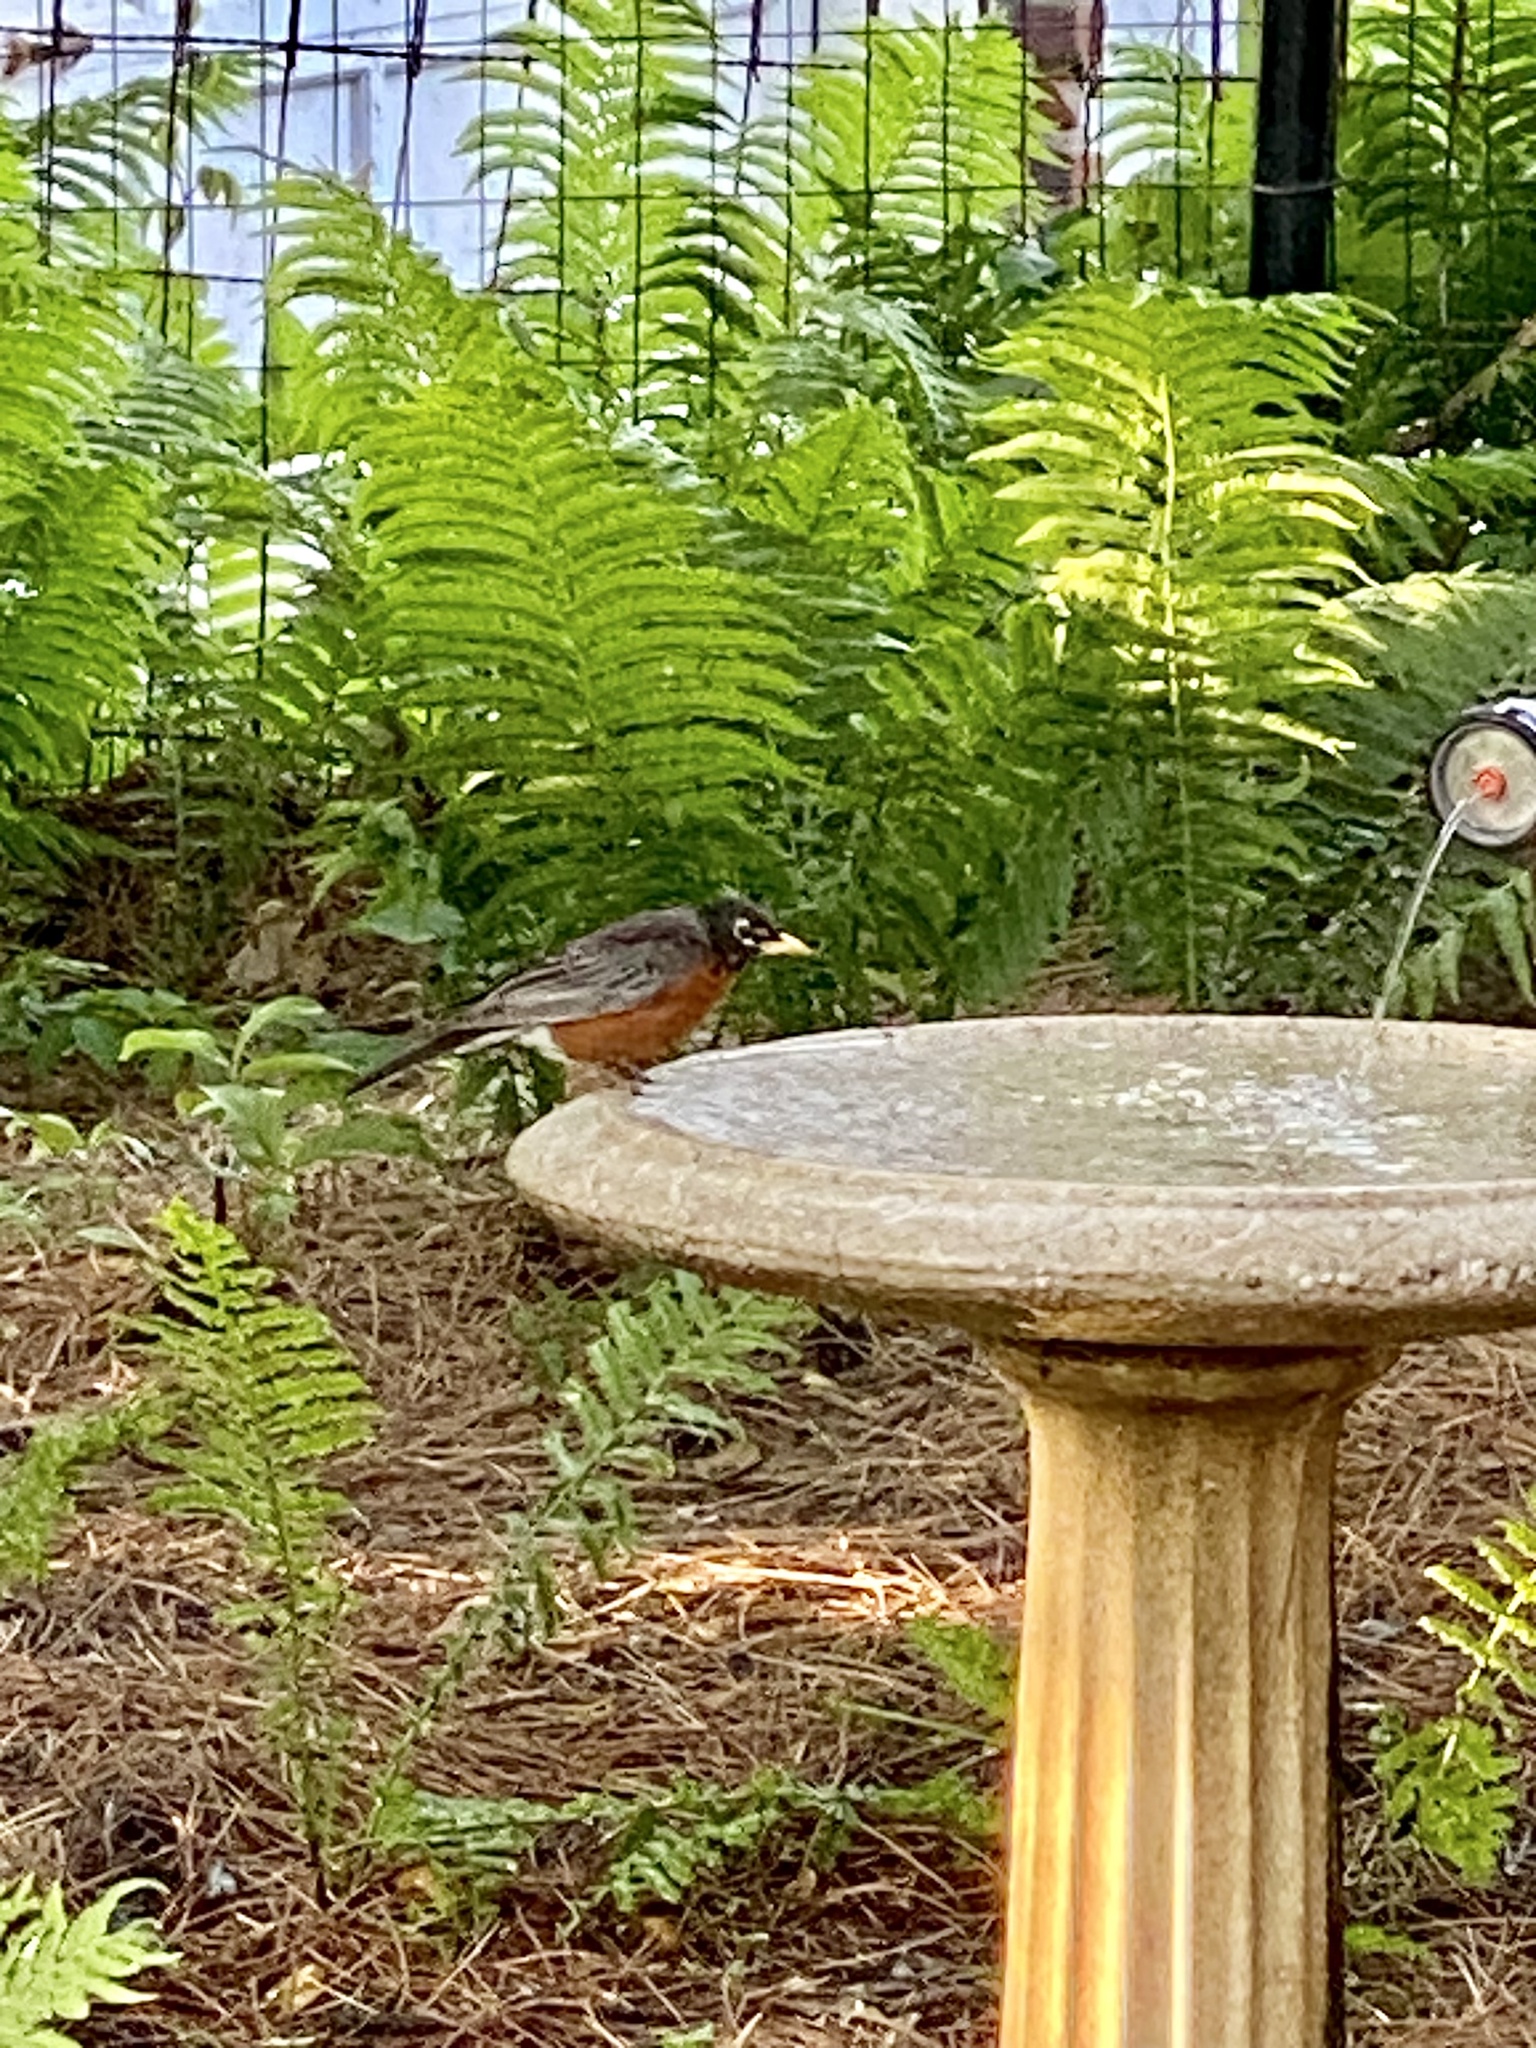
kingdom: Animalia
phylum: Chordata
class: Aves
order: Passeriformes
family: Turdidae
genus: Turdus
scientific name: Turdus migratorius
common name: American robin
